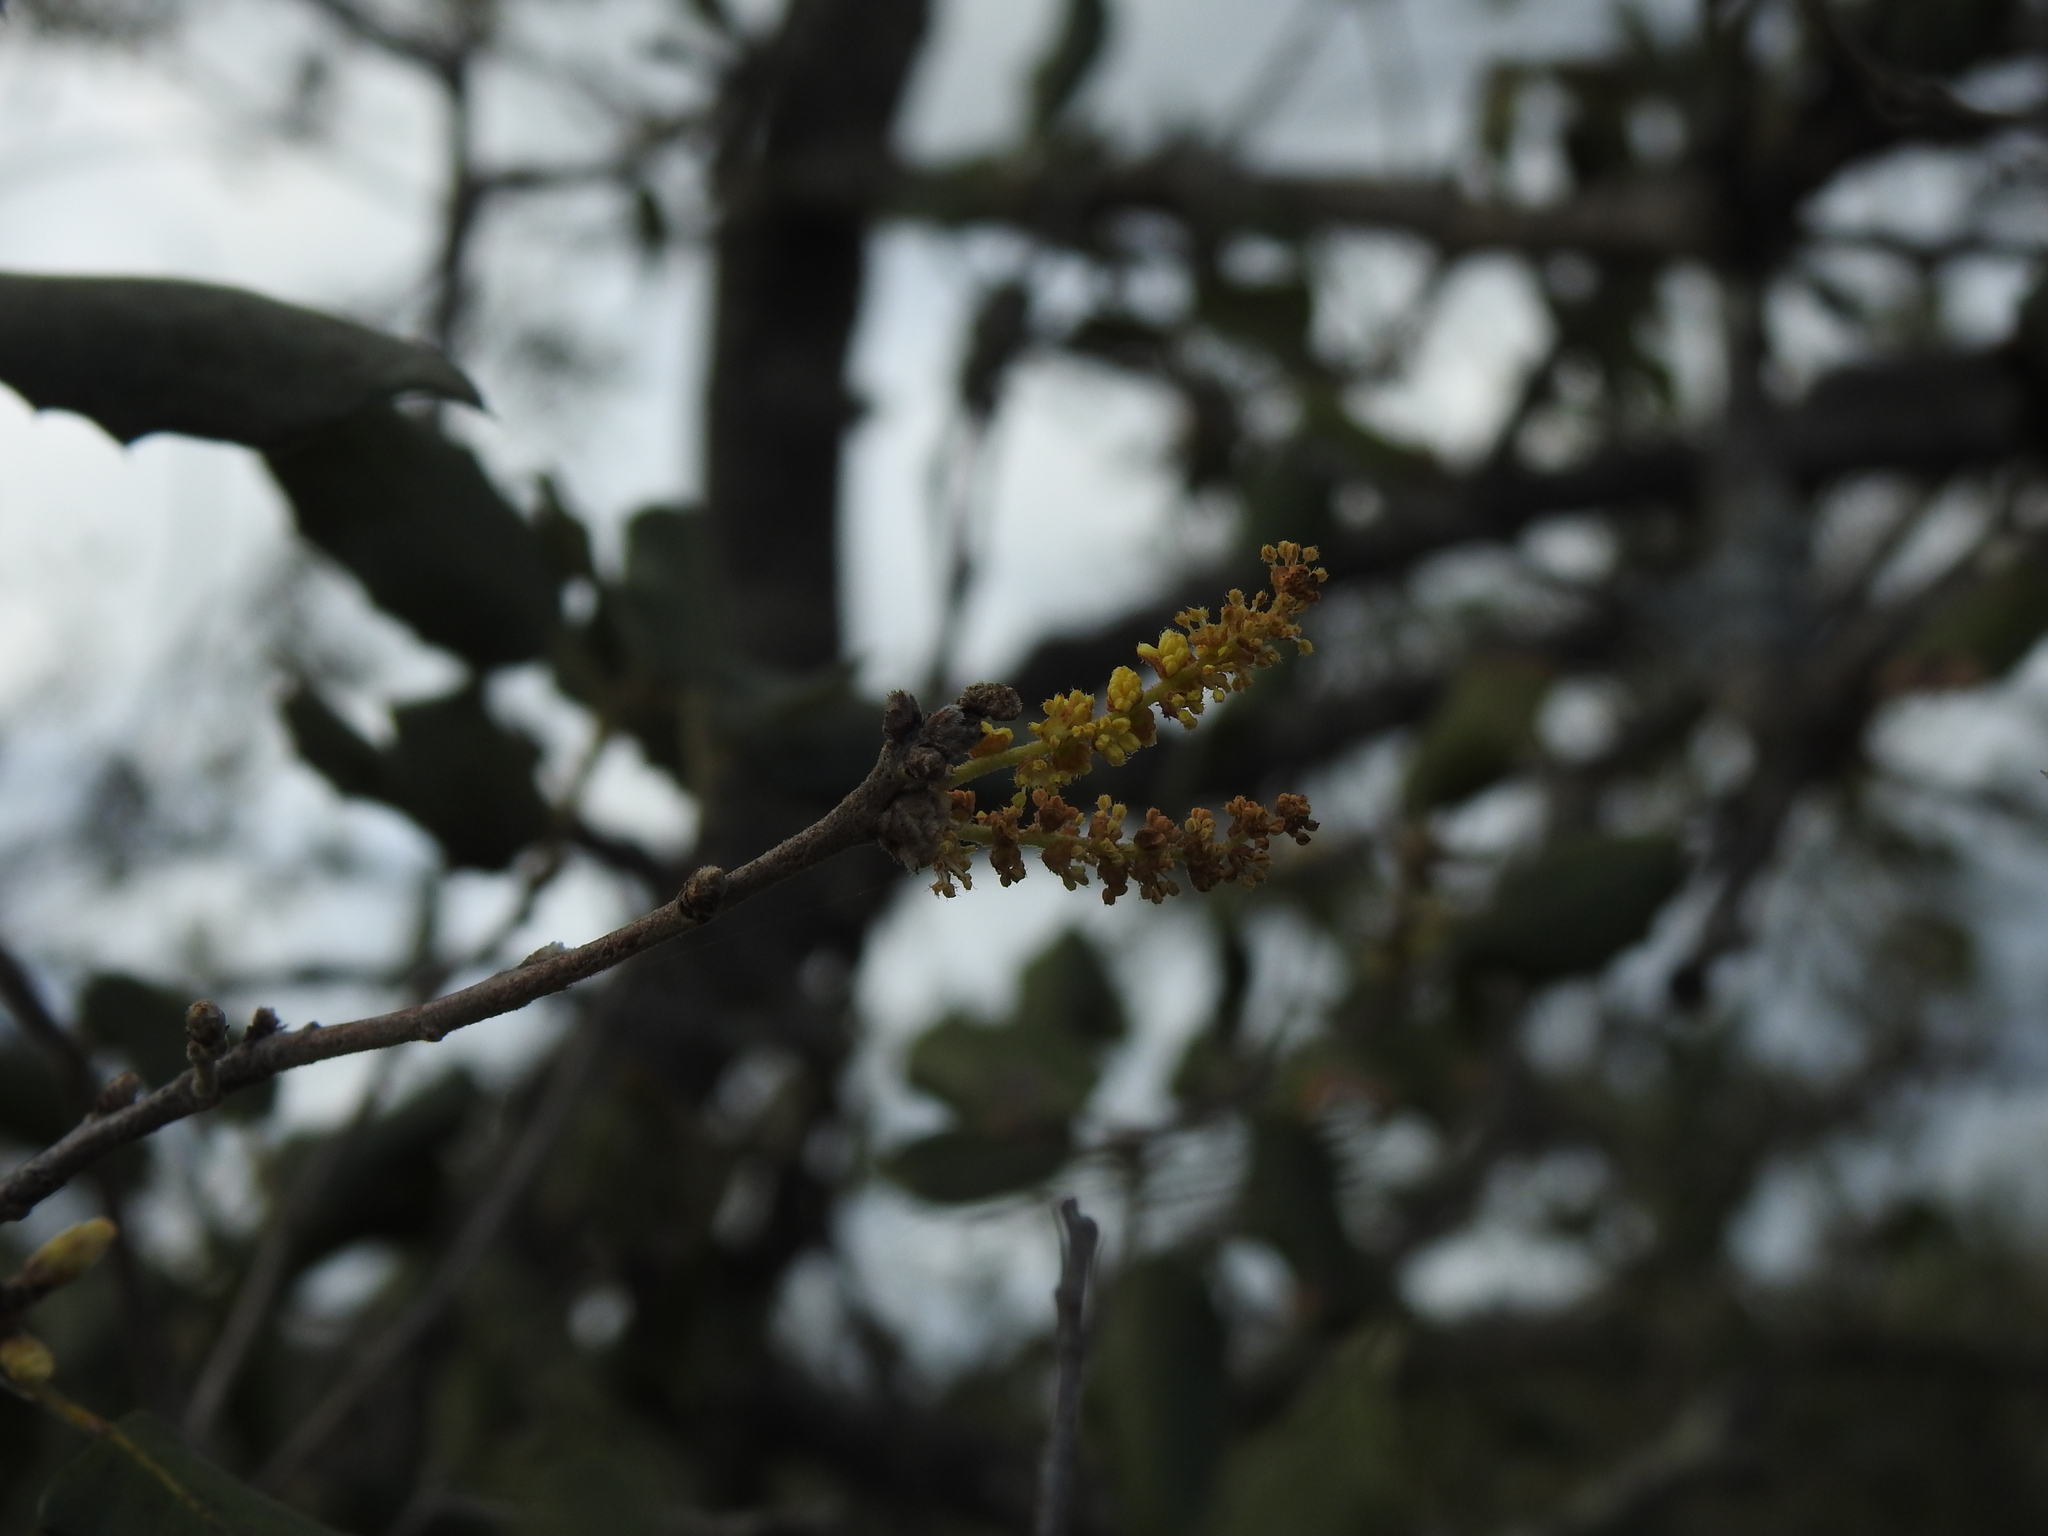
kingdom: Plantae
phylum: Tracheophyta
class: Magnoliopsida
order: Fagales
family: Fagaceae
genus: Quercus
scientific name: Quercus rotundifolia
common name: Holm oak
